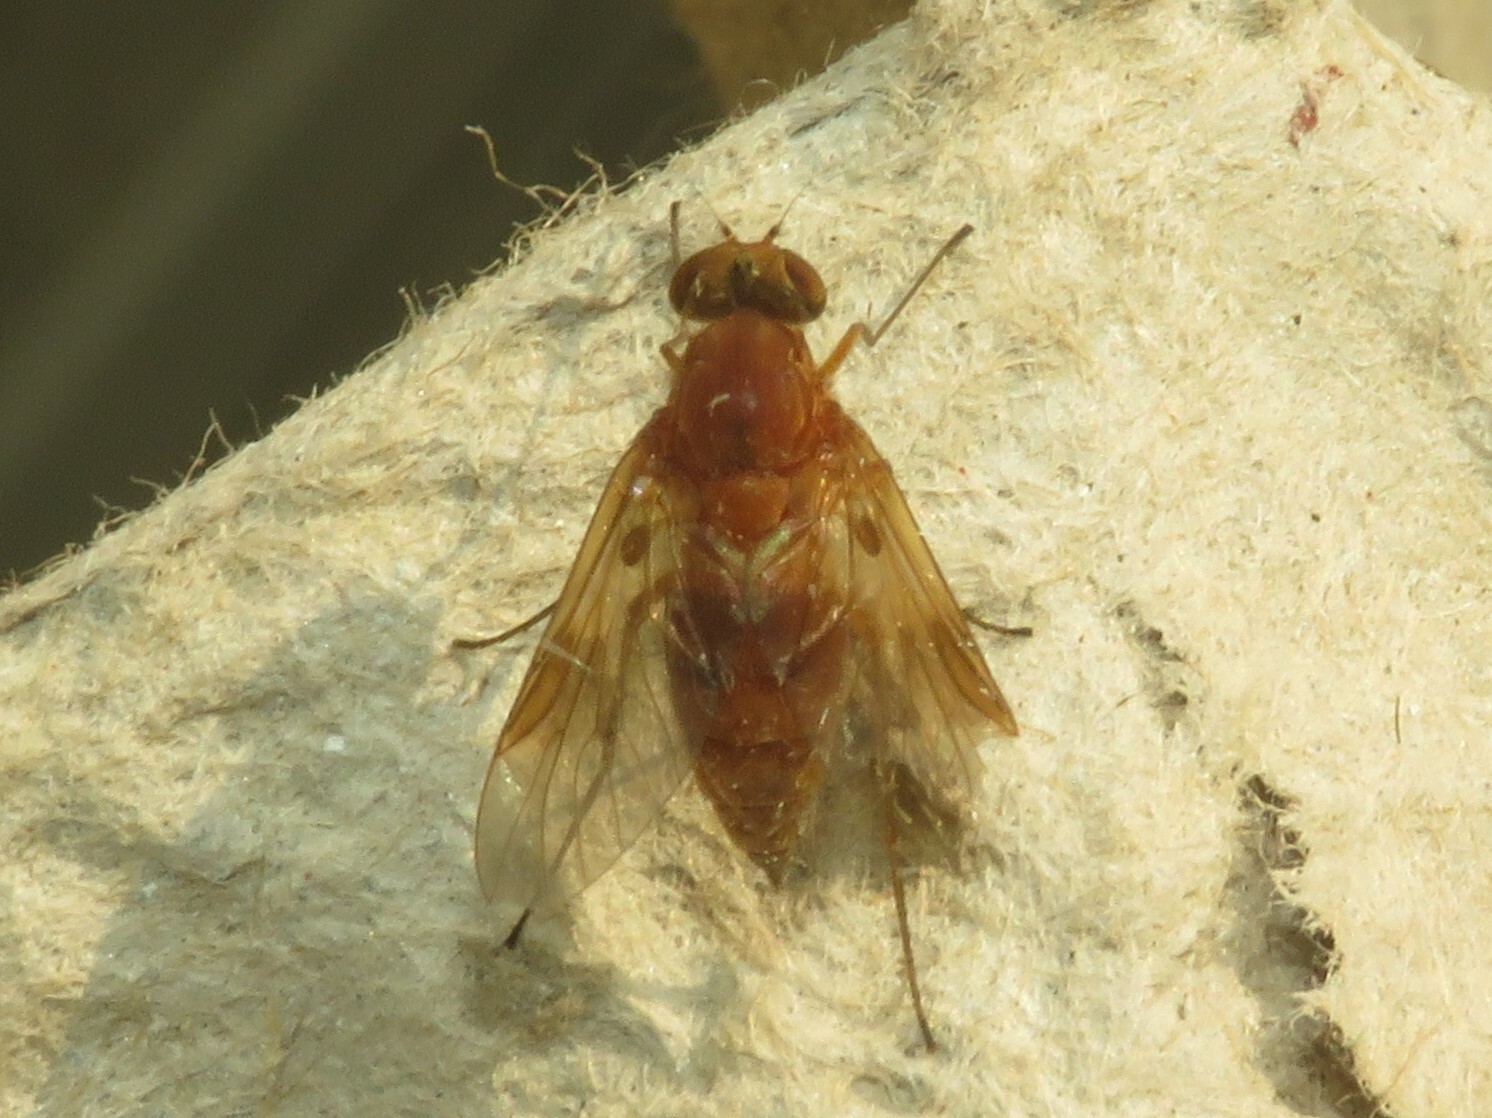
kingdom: Animalia
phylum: Arthropoda
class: Insecta
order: Diptera
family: Rhagionidae
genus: Chrysopilus
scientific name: Chrysopilus quadratus
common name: Quadrate snipe fly
